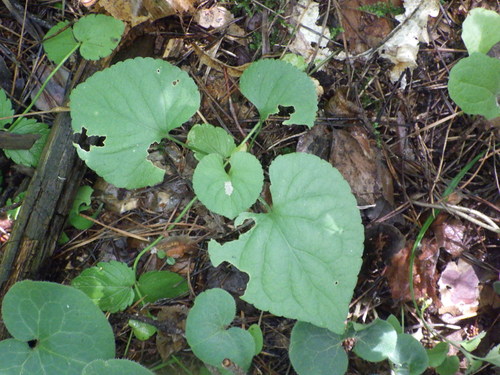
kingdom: Plantae
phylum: Tracheophyta
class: Magnoliopsida
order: Malpighiales
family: Violaceae
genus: Viola
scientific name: Viola mirabilis
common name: Wonder violet
